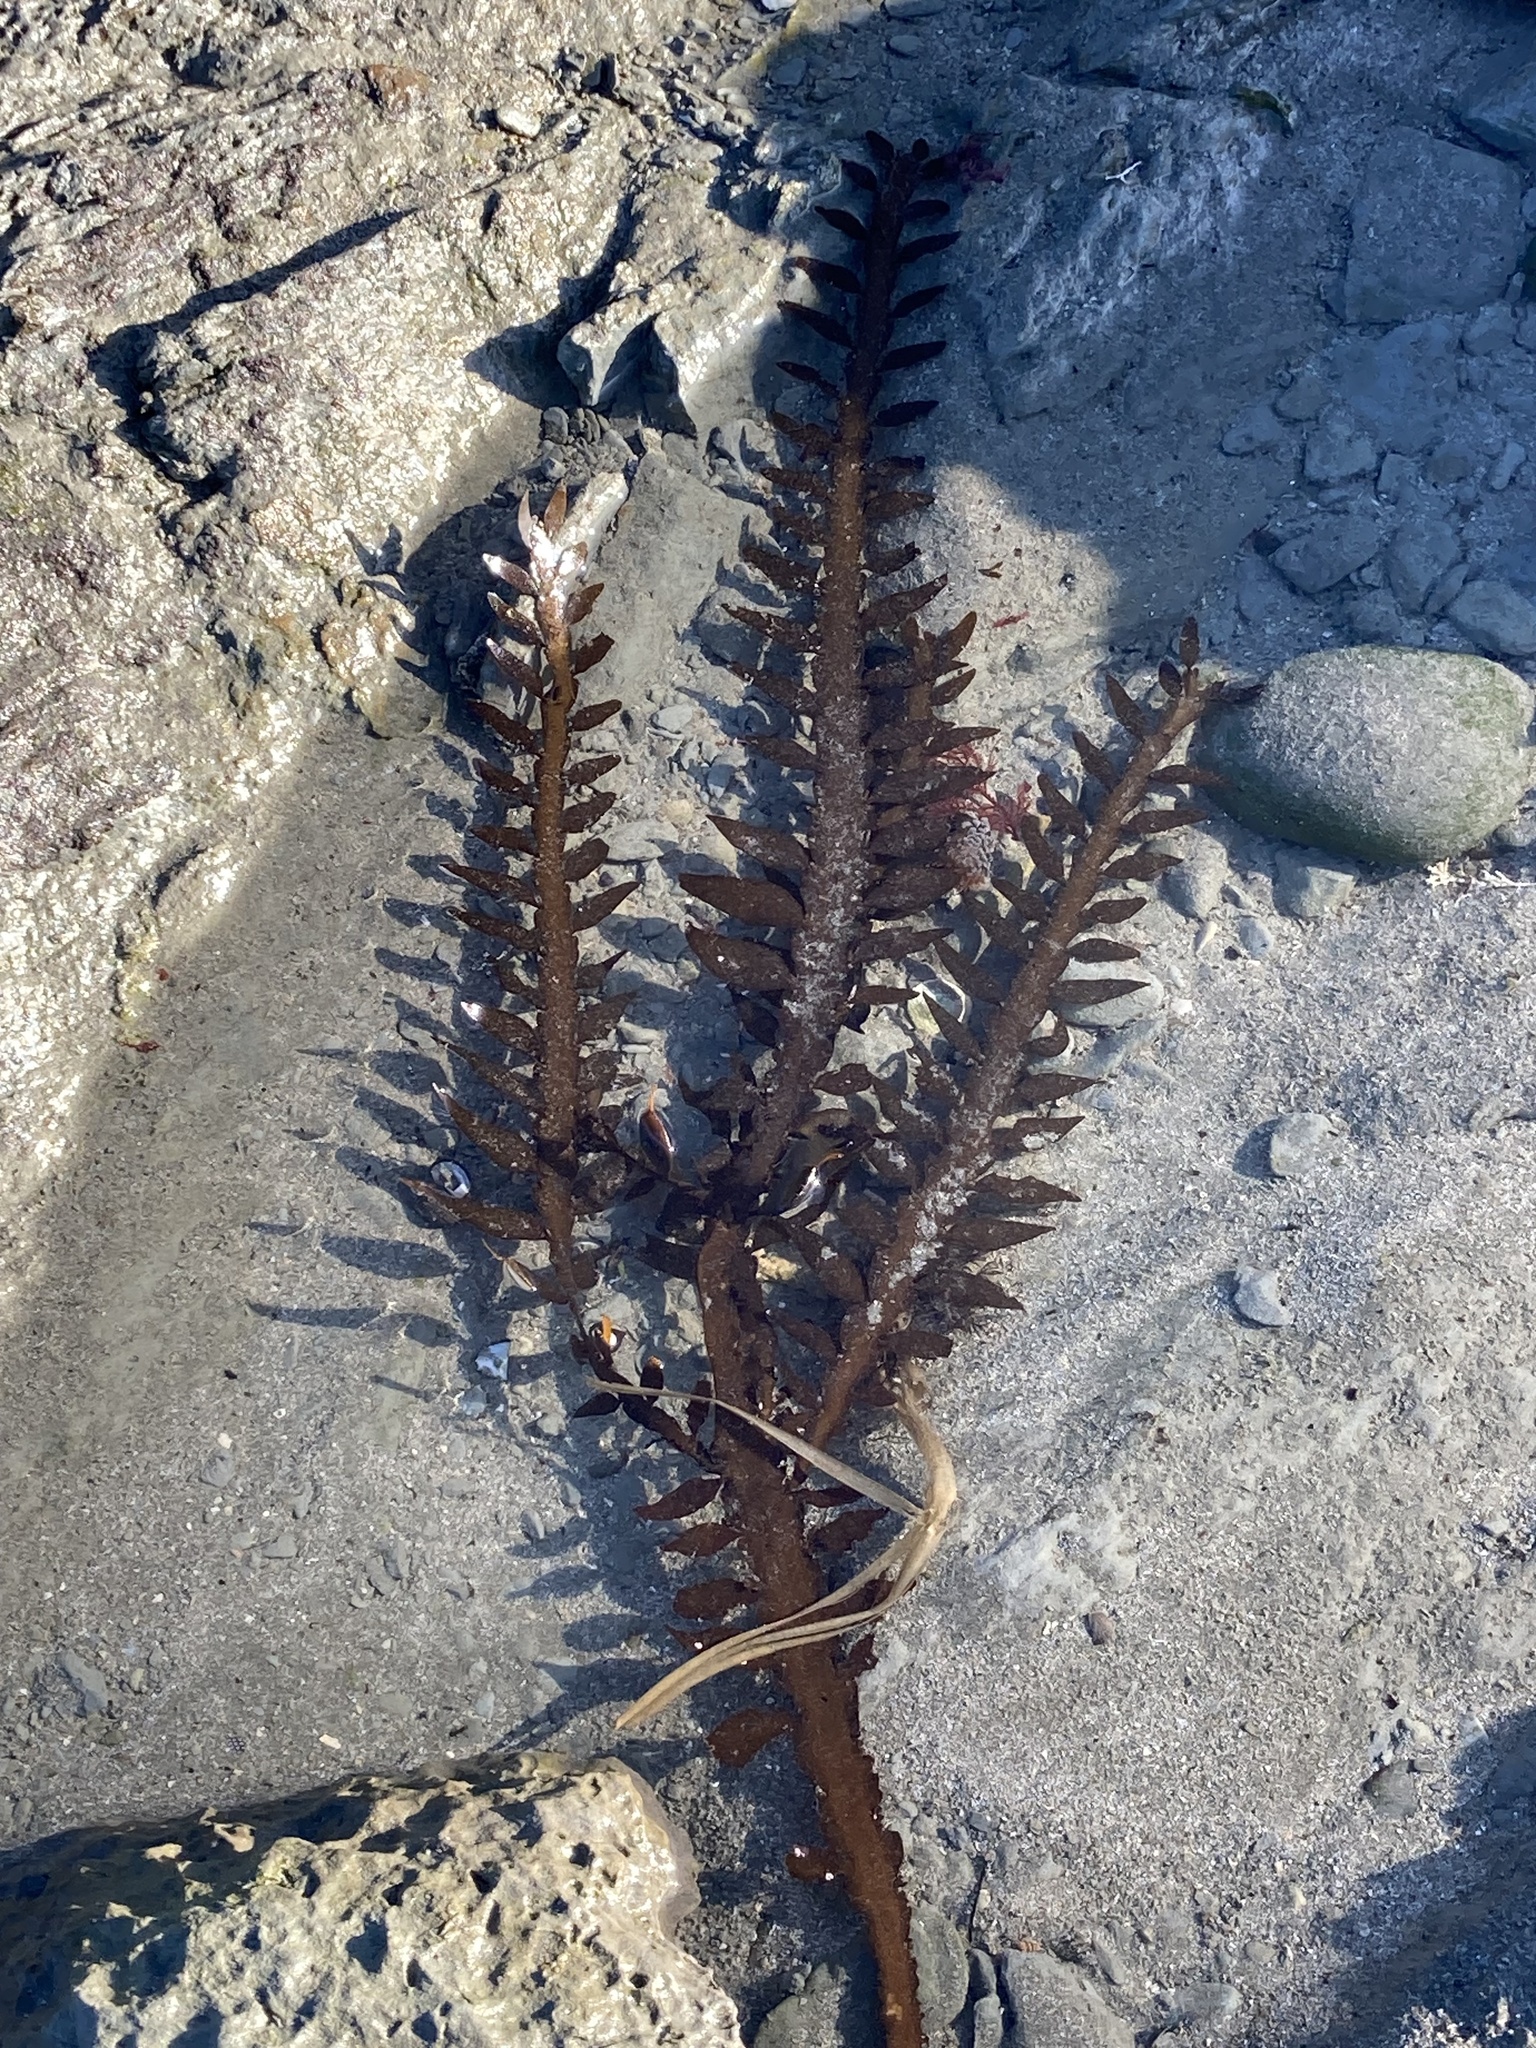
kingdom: Chromista
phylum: Ochrophyta
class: Phaeophyceae
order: Fucales
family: Sargassaceae
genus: Carpophyllum
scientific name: Carpophyllum maschalocarpum
